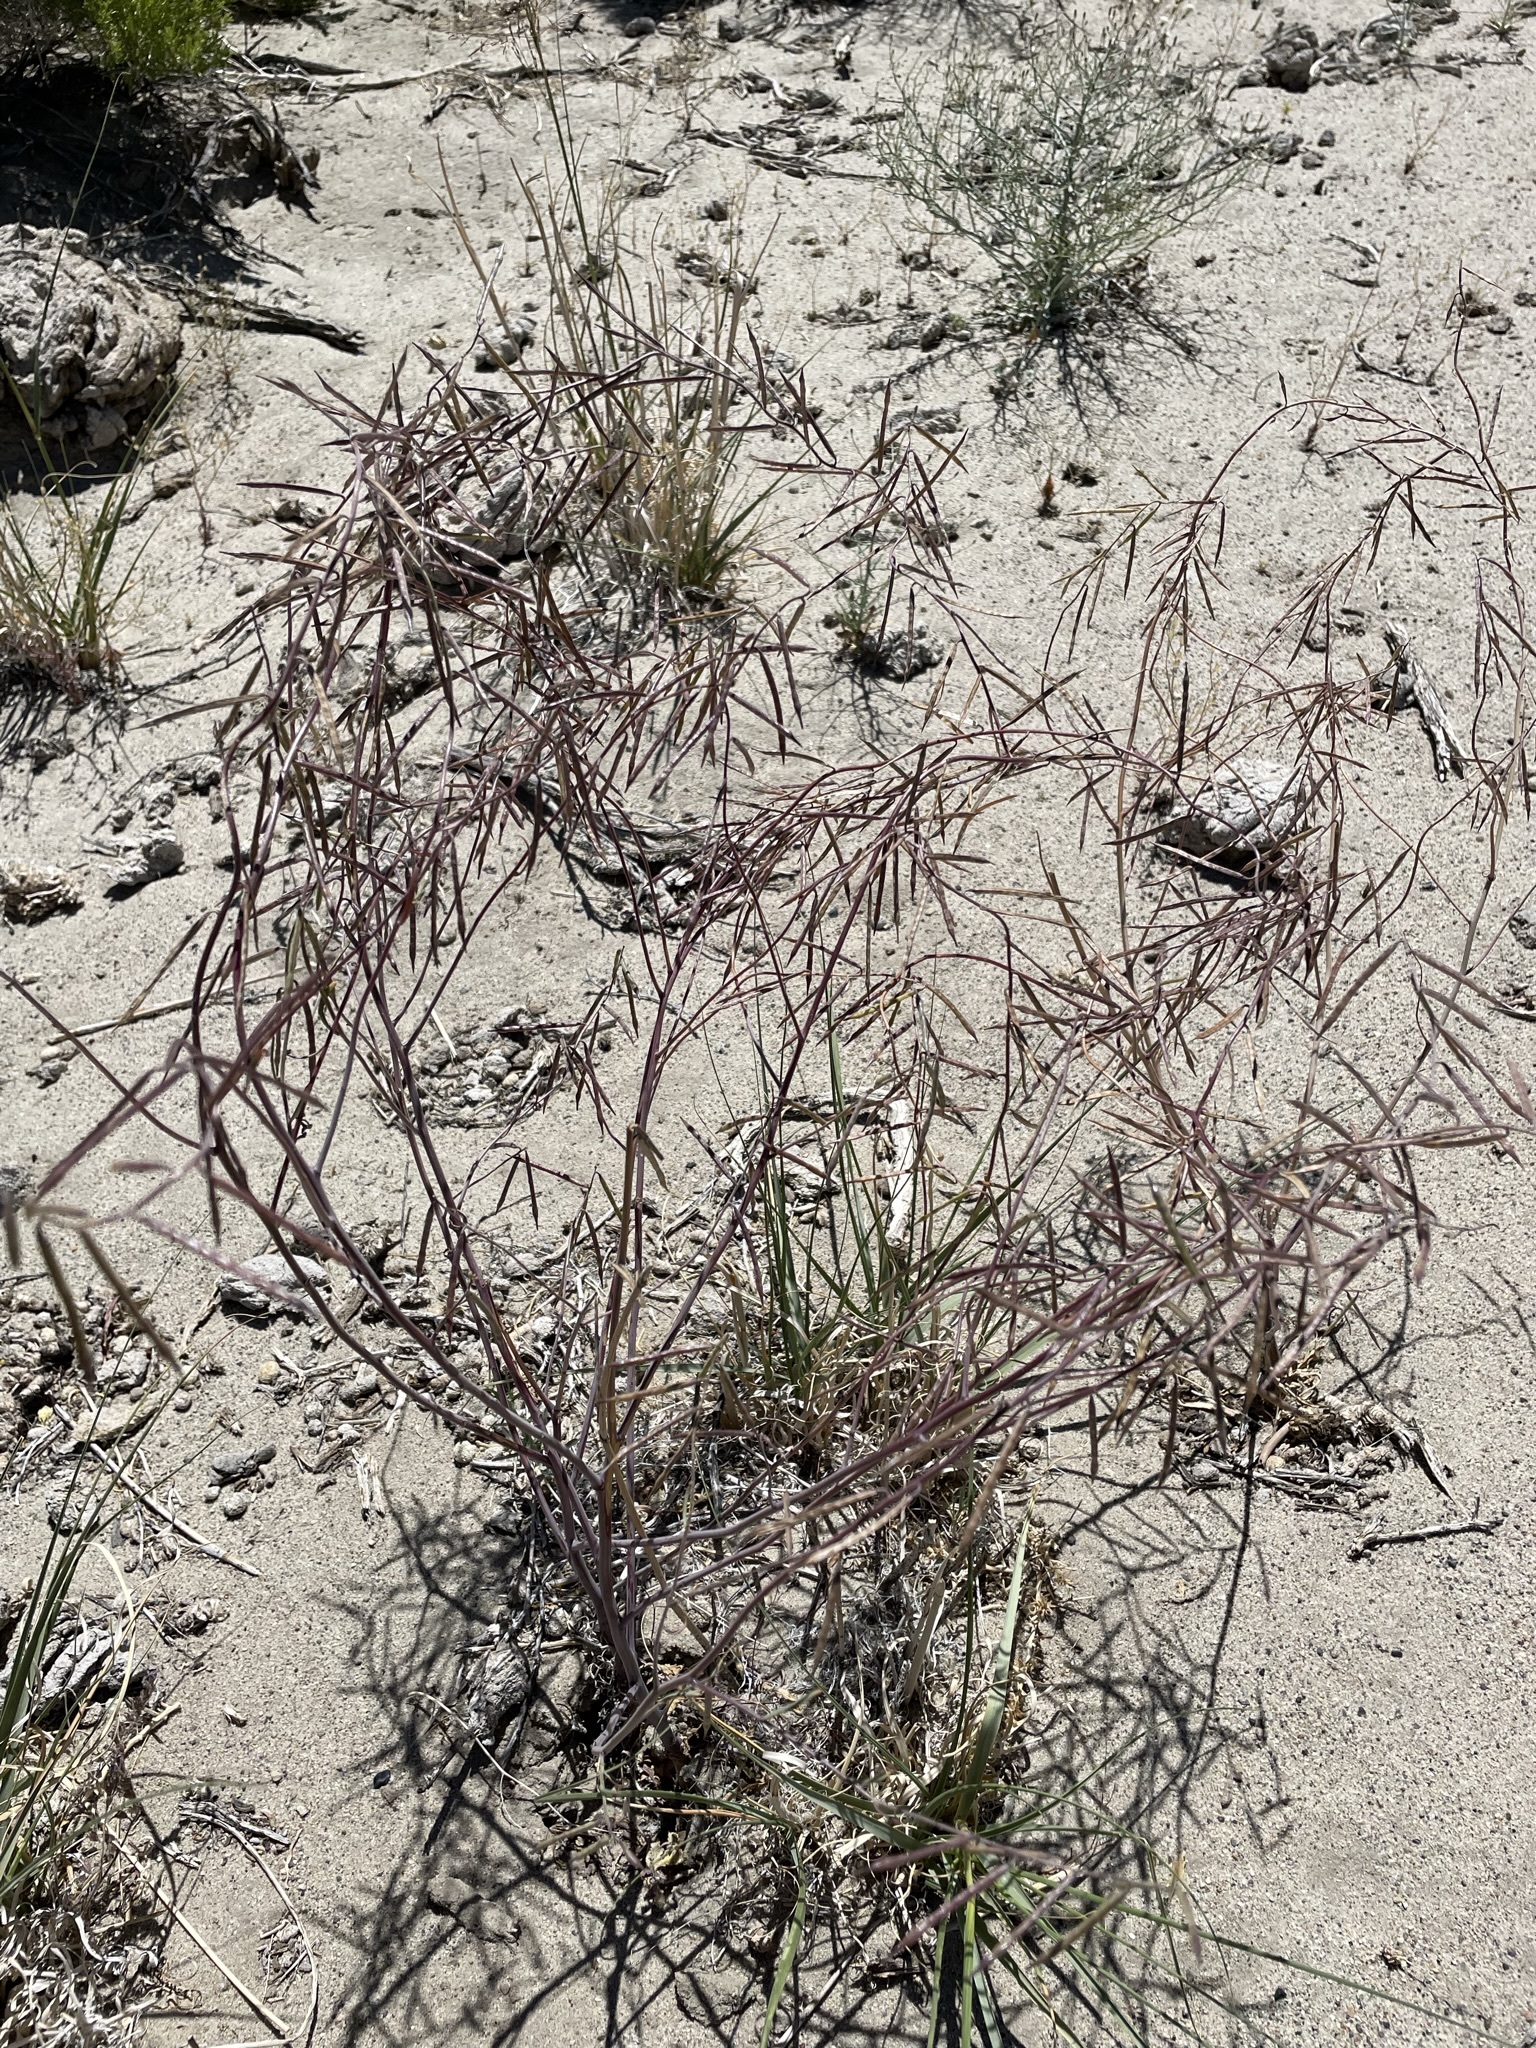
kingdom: Plantae
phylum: Tracheophyta
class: Magnoliopsida
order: Brassicales
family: Brassicaceae
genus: Streptanthus
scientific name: Streptanthus longirostris
